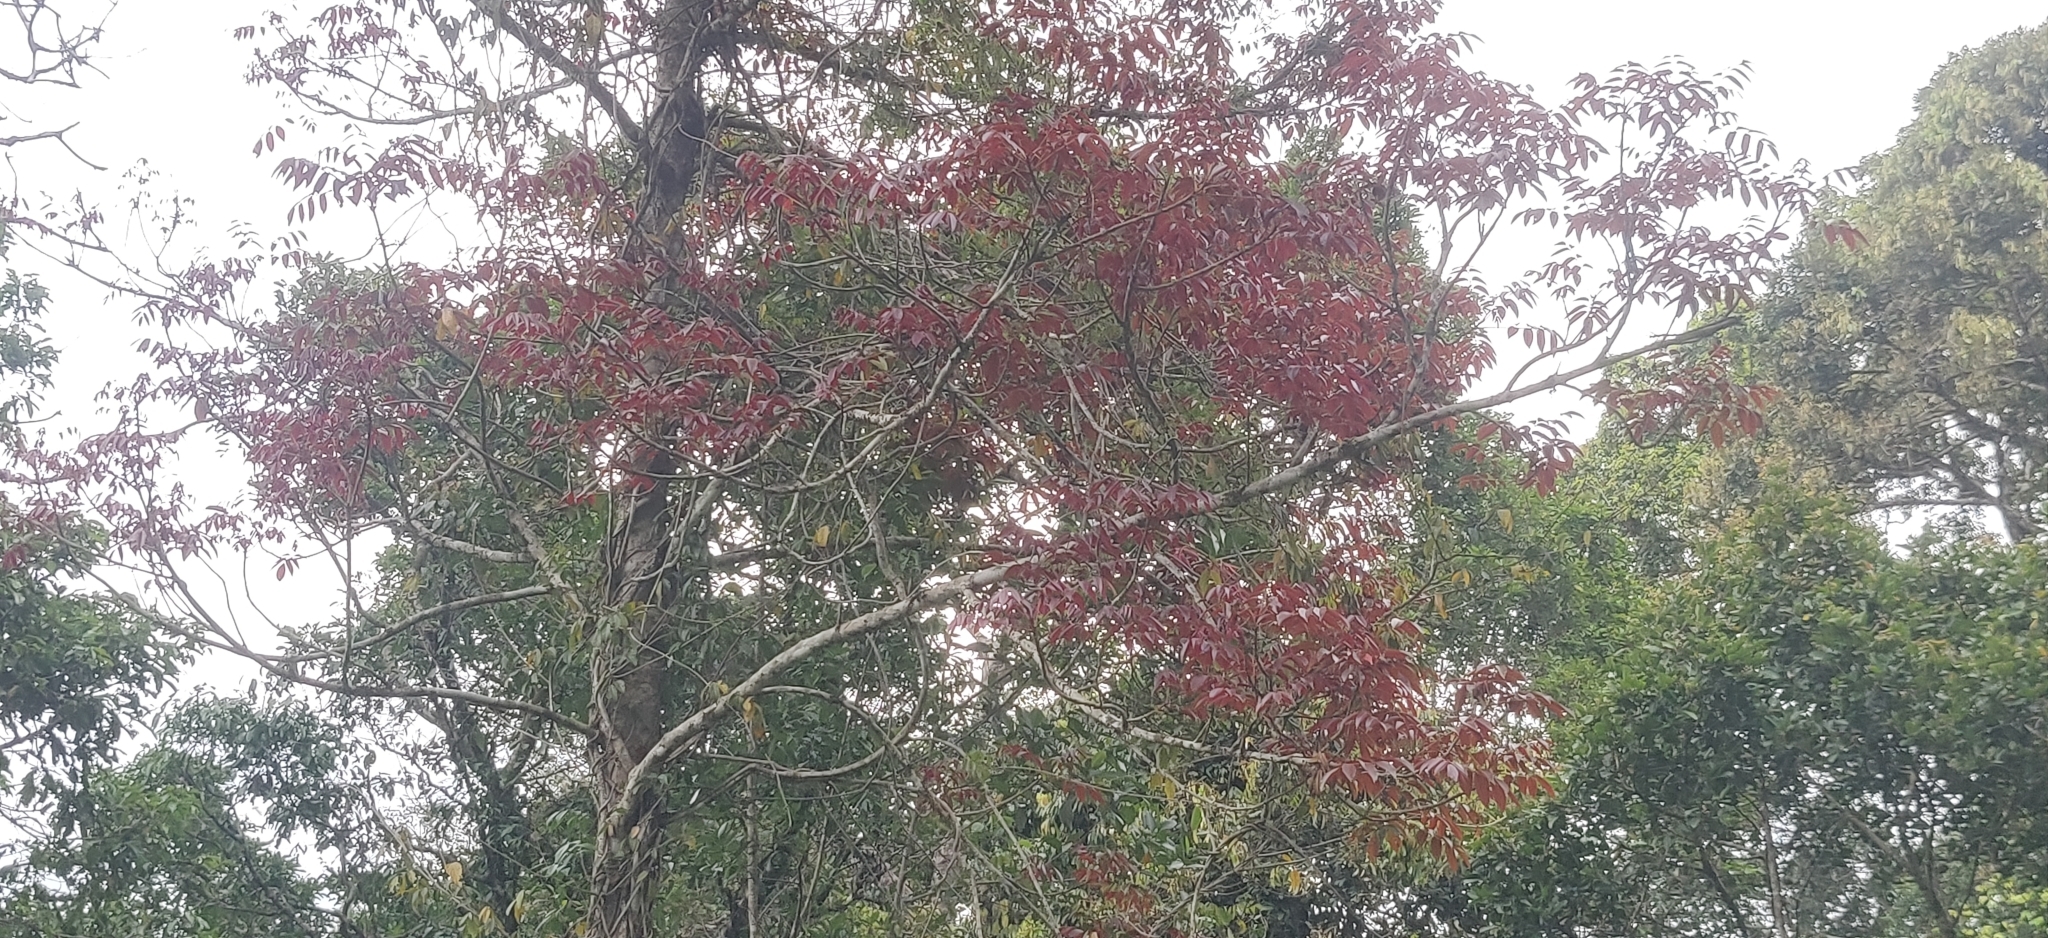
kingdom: Plantae
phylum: Tracheophyta
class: Magnoliopsida
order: Sapindales
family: Burseraceae
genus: Canarium
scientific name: Canarium strictum
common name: Indian white-mahogany
